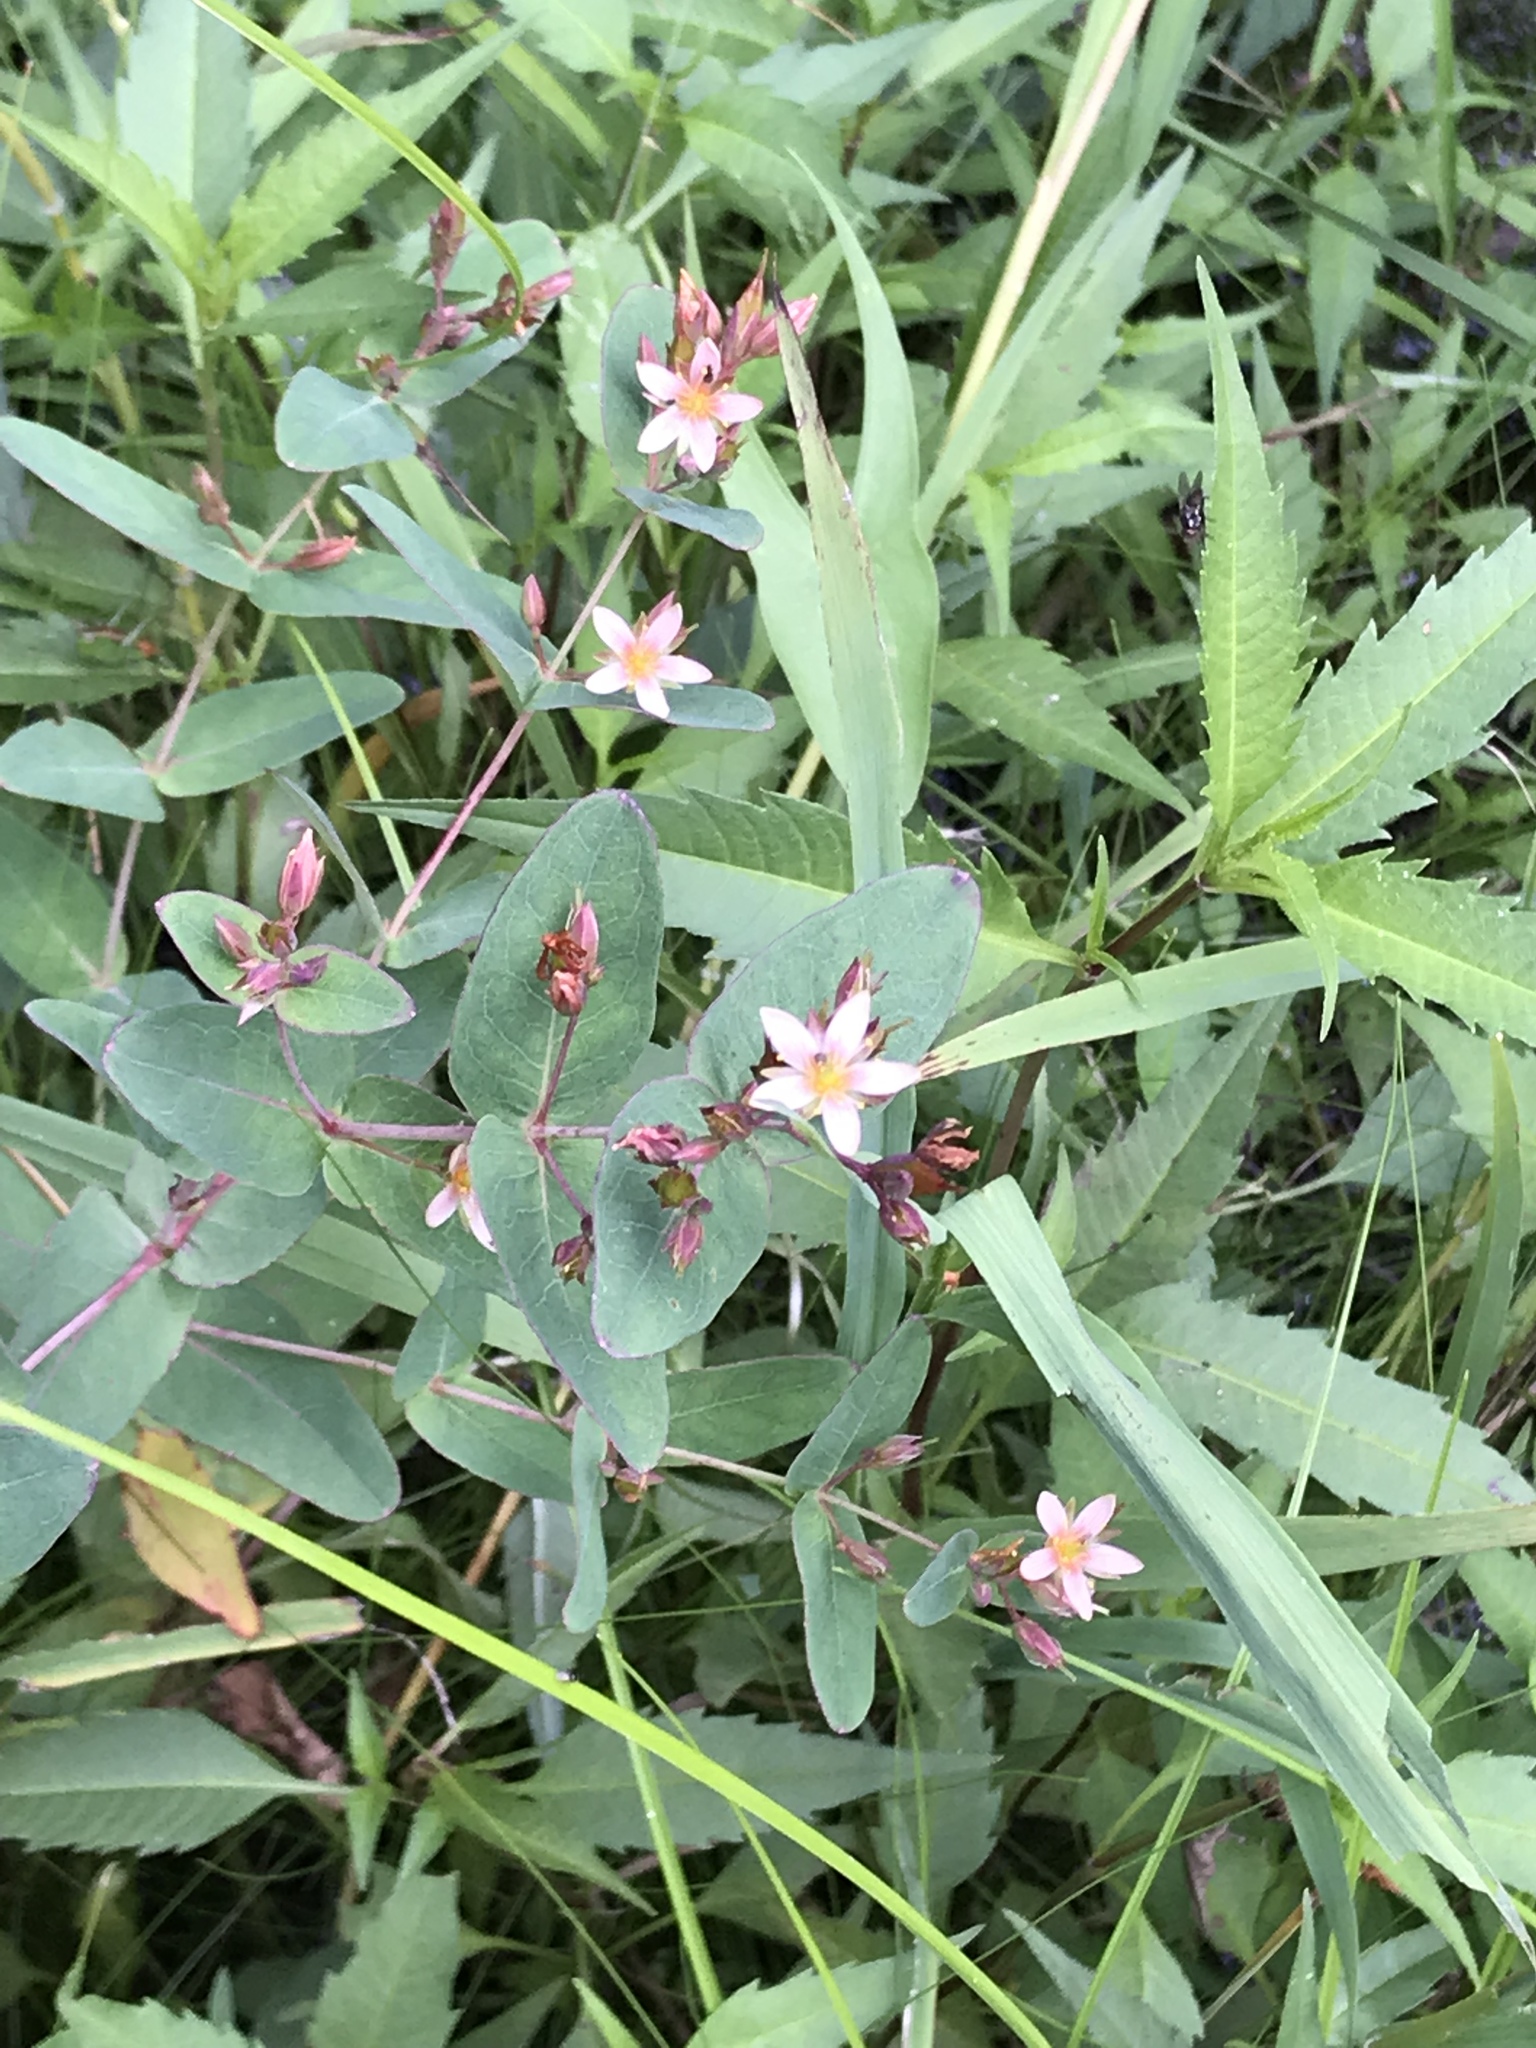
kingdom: Plantae
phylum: Tracheophyta
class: Magnoliopsida
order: Malpighiales
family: Hypericaceae
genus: Triadenum
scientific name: Triadenum virginicum
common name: Marsh st. john's-wort
